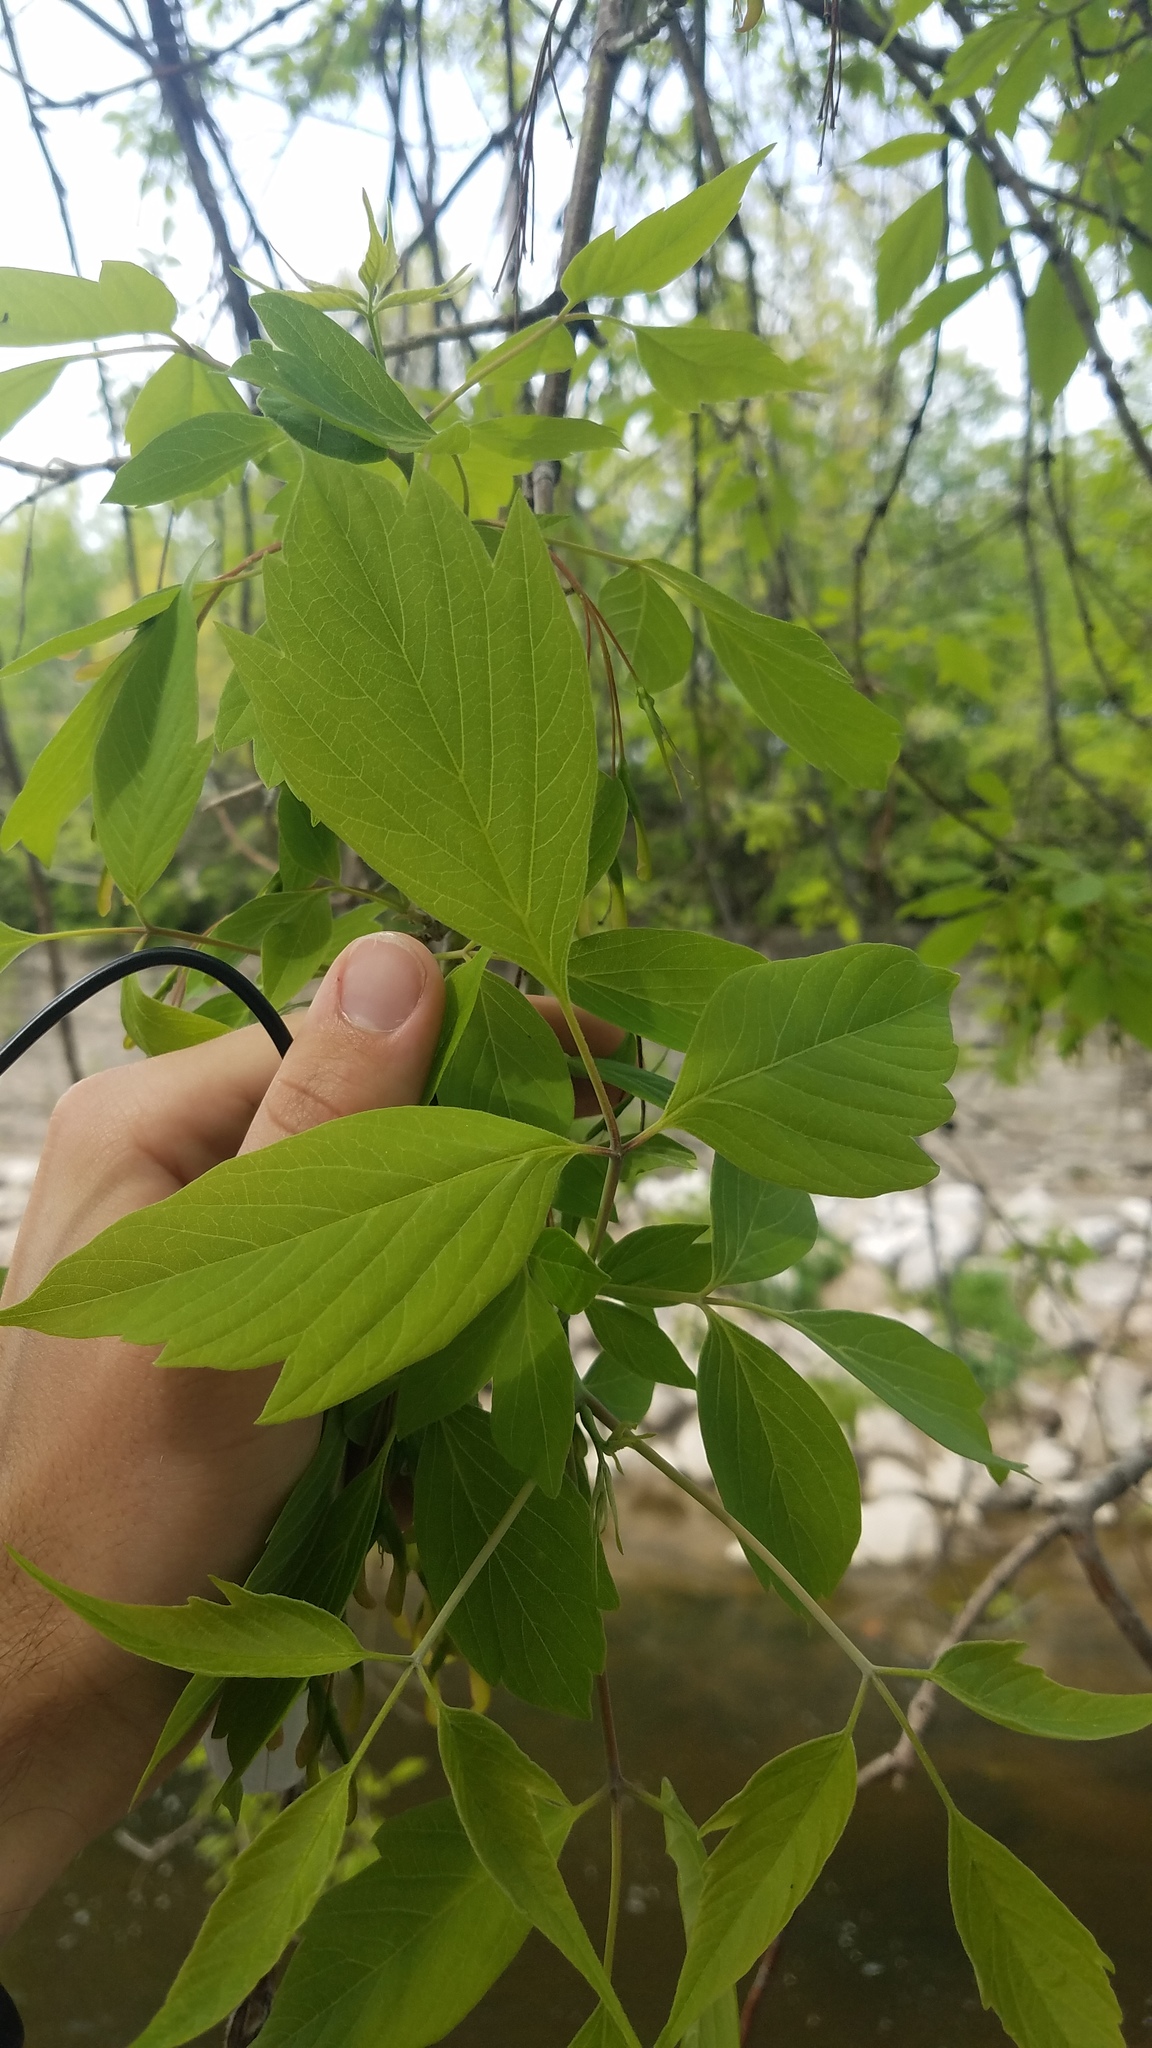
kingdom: Plantae
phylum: Tracheophyta
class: Magnoliopsida
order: Sapindales
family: Sapindaceae
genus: Acer
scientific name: Acer negundo
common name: Ashleaf maple
